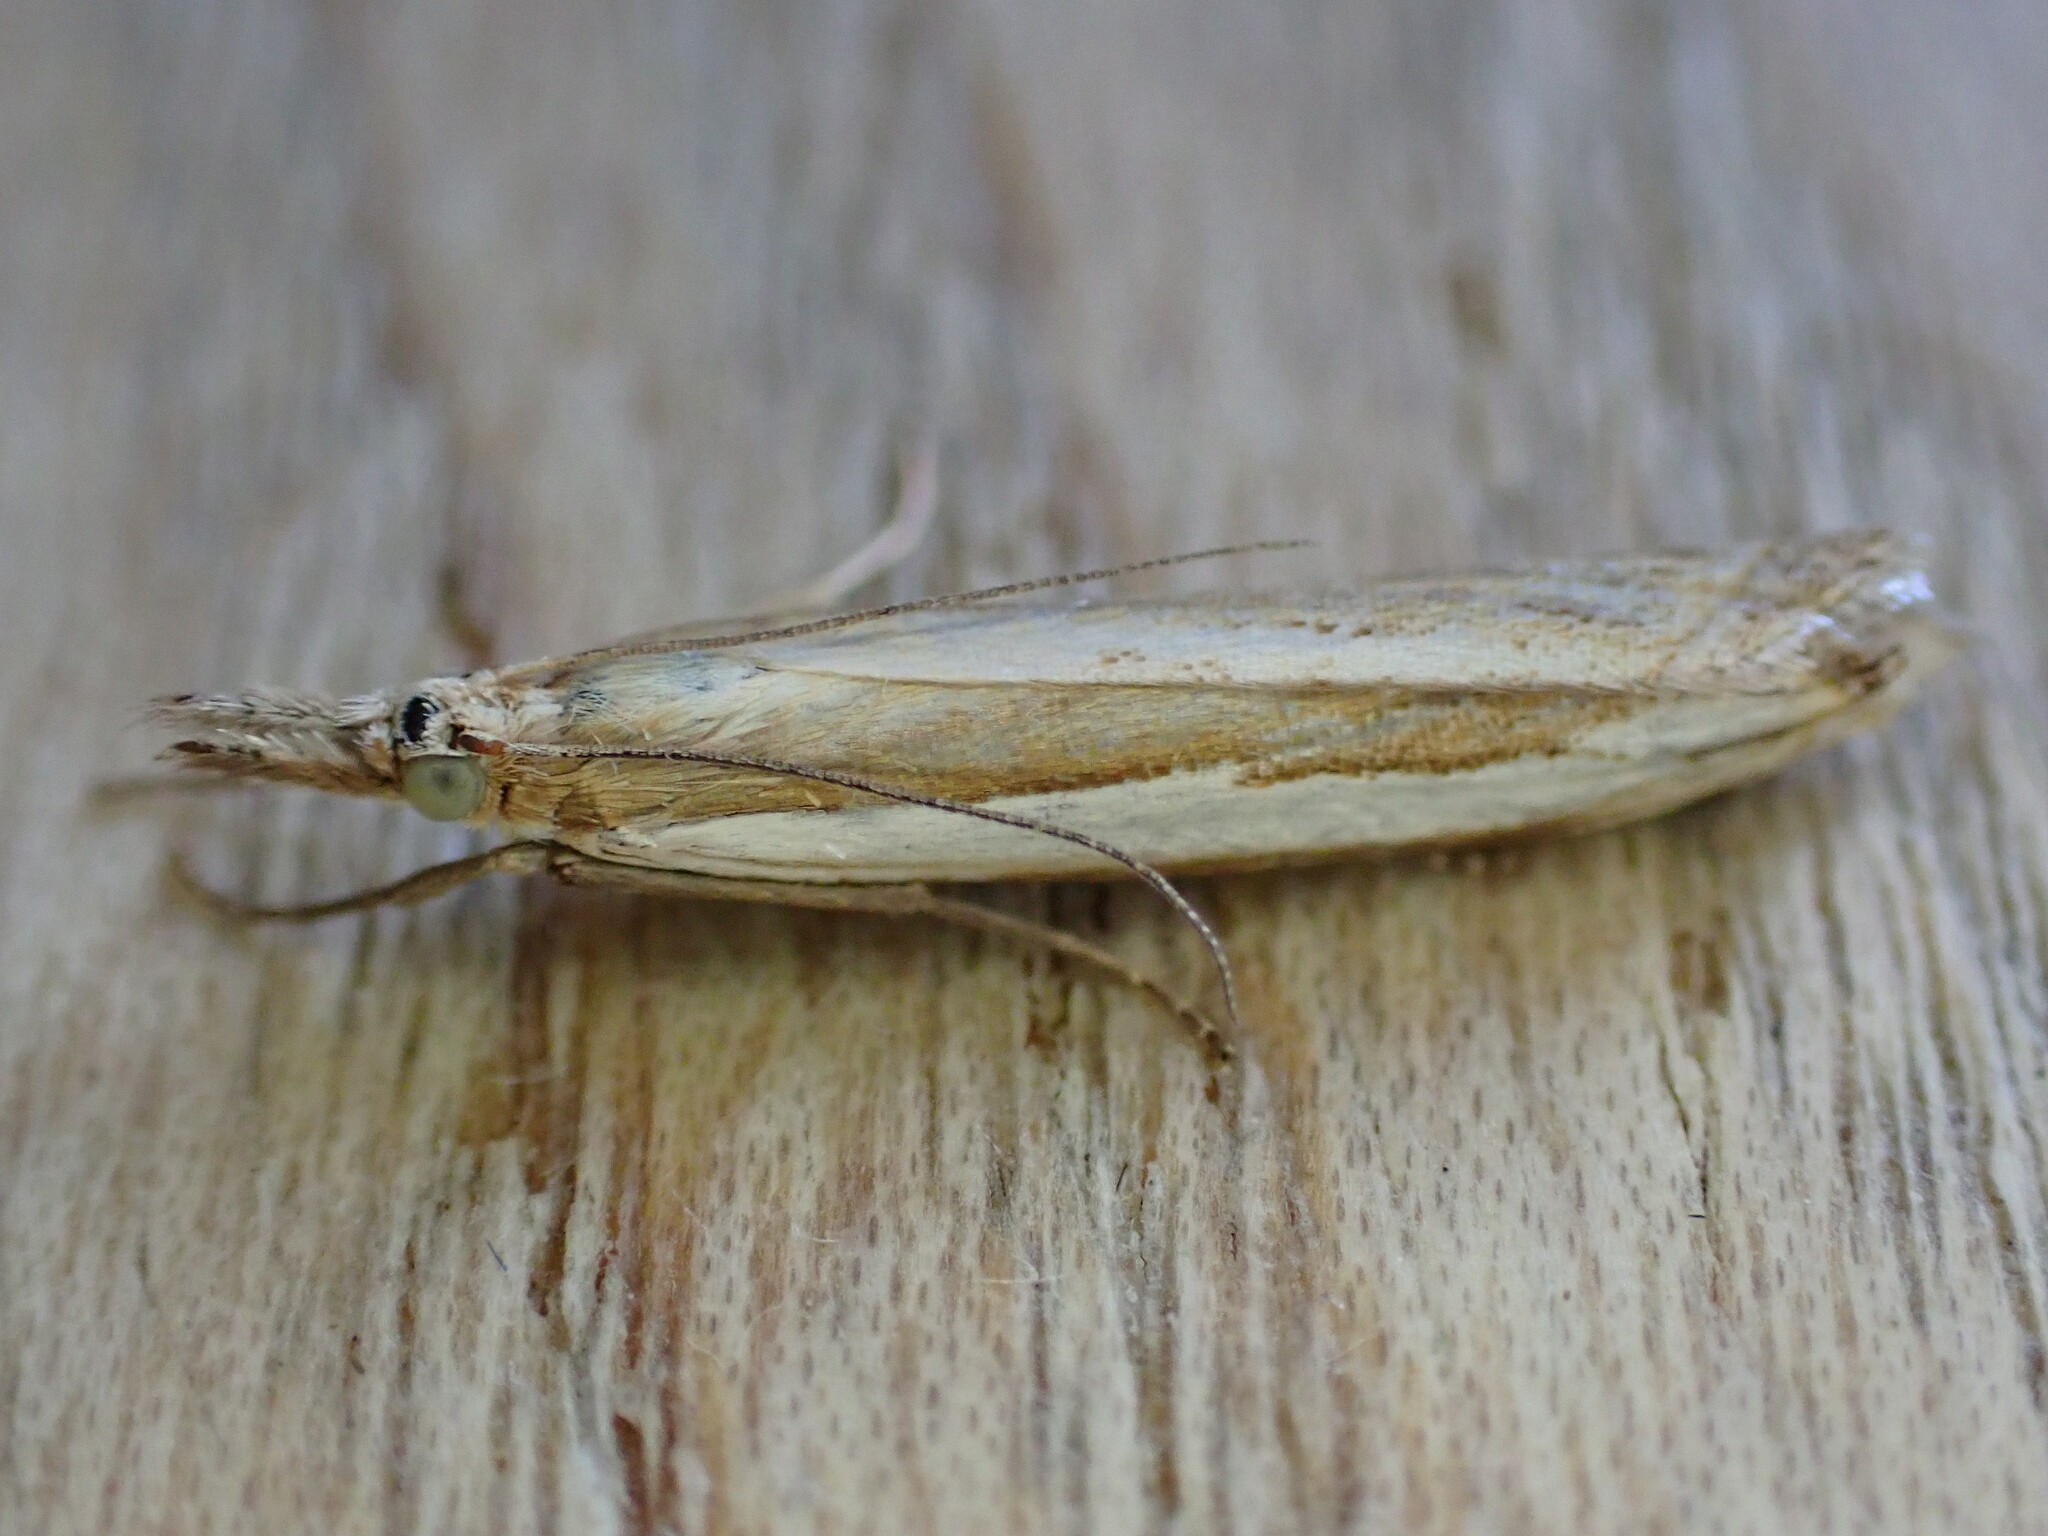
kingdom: Animalia
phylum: Arthropoda
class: Insecta
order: Lepidoptera
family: Crambidae
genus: Crambus
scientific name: Crambus pascuella
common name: Inlaid grass-veneer
